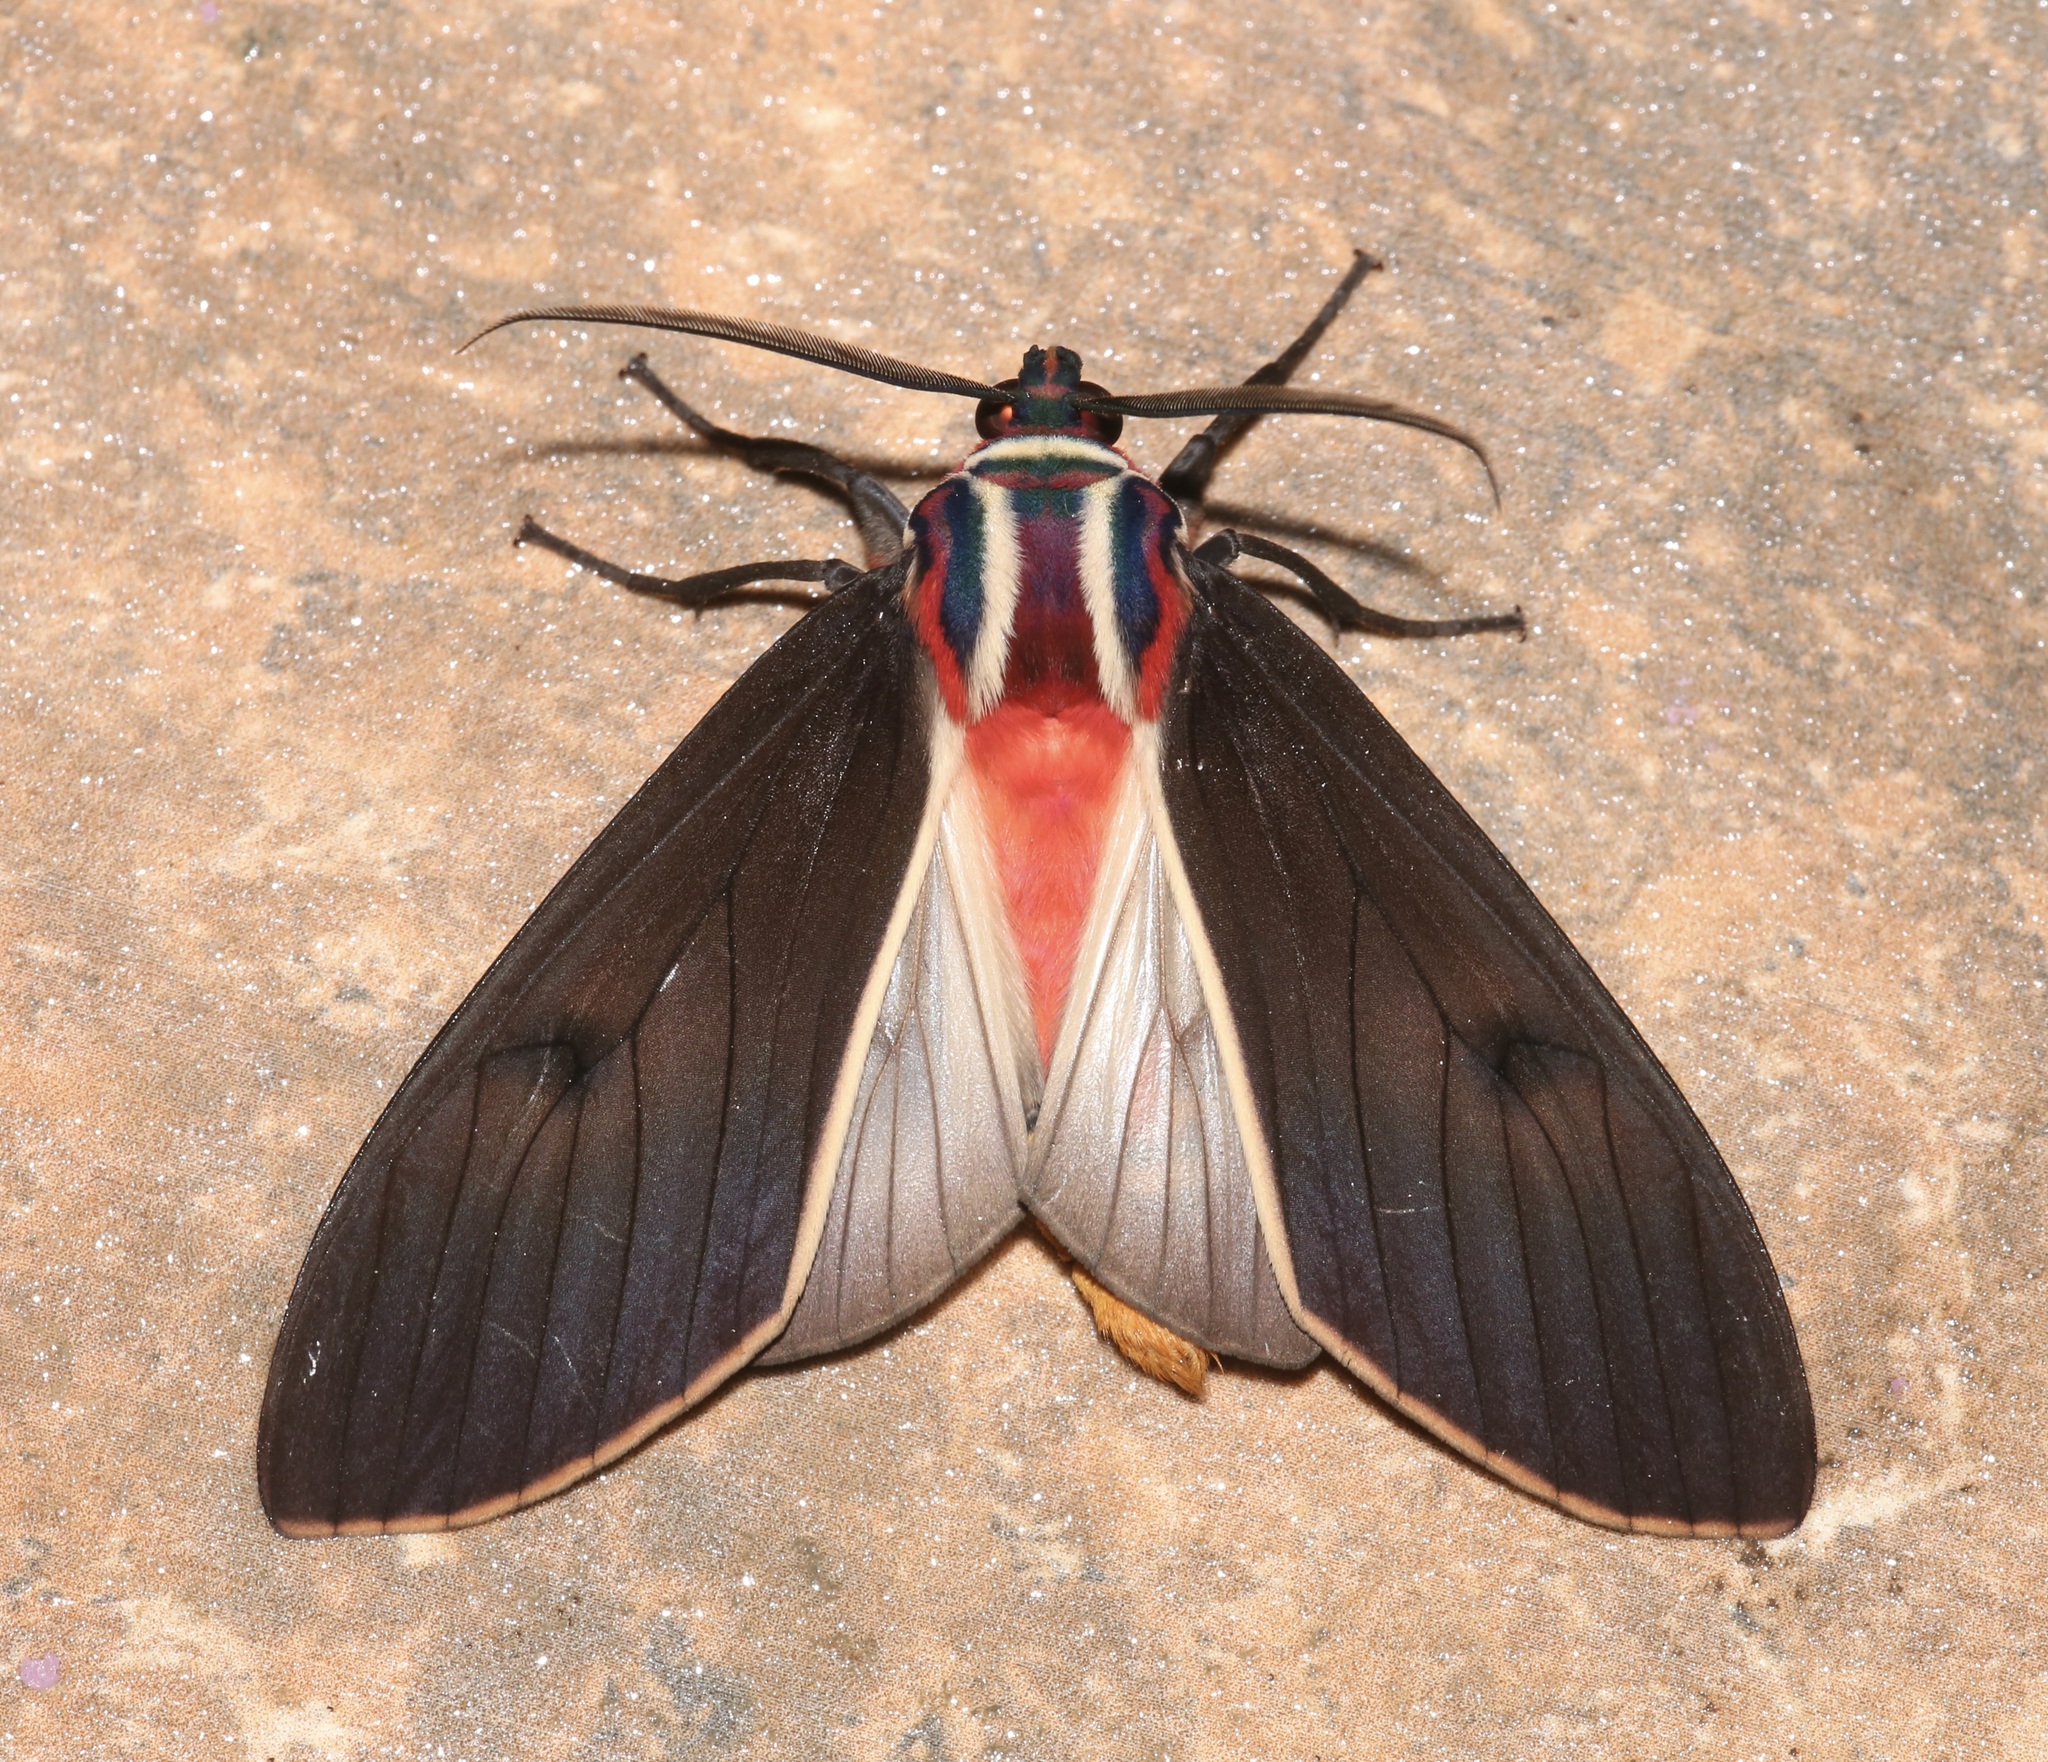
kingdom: Animalia
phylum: Arthropoda
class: Insecta
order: Lepidoptera
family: Erebidae
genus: Amastus
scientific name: Amastus episcotosia
